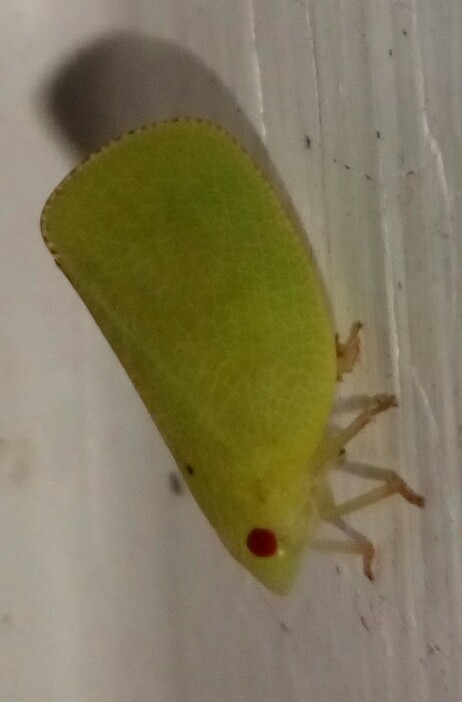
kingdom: Animalia
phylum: Arthropoda
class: Insecta
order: Hemiptera
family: Acanaloniidae
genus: Acanalonia
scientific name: Acanalonia conica
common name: Green cone-headed planthopper
